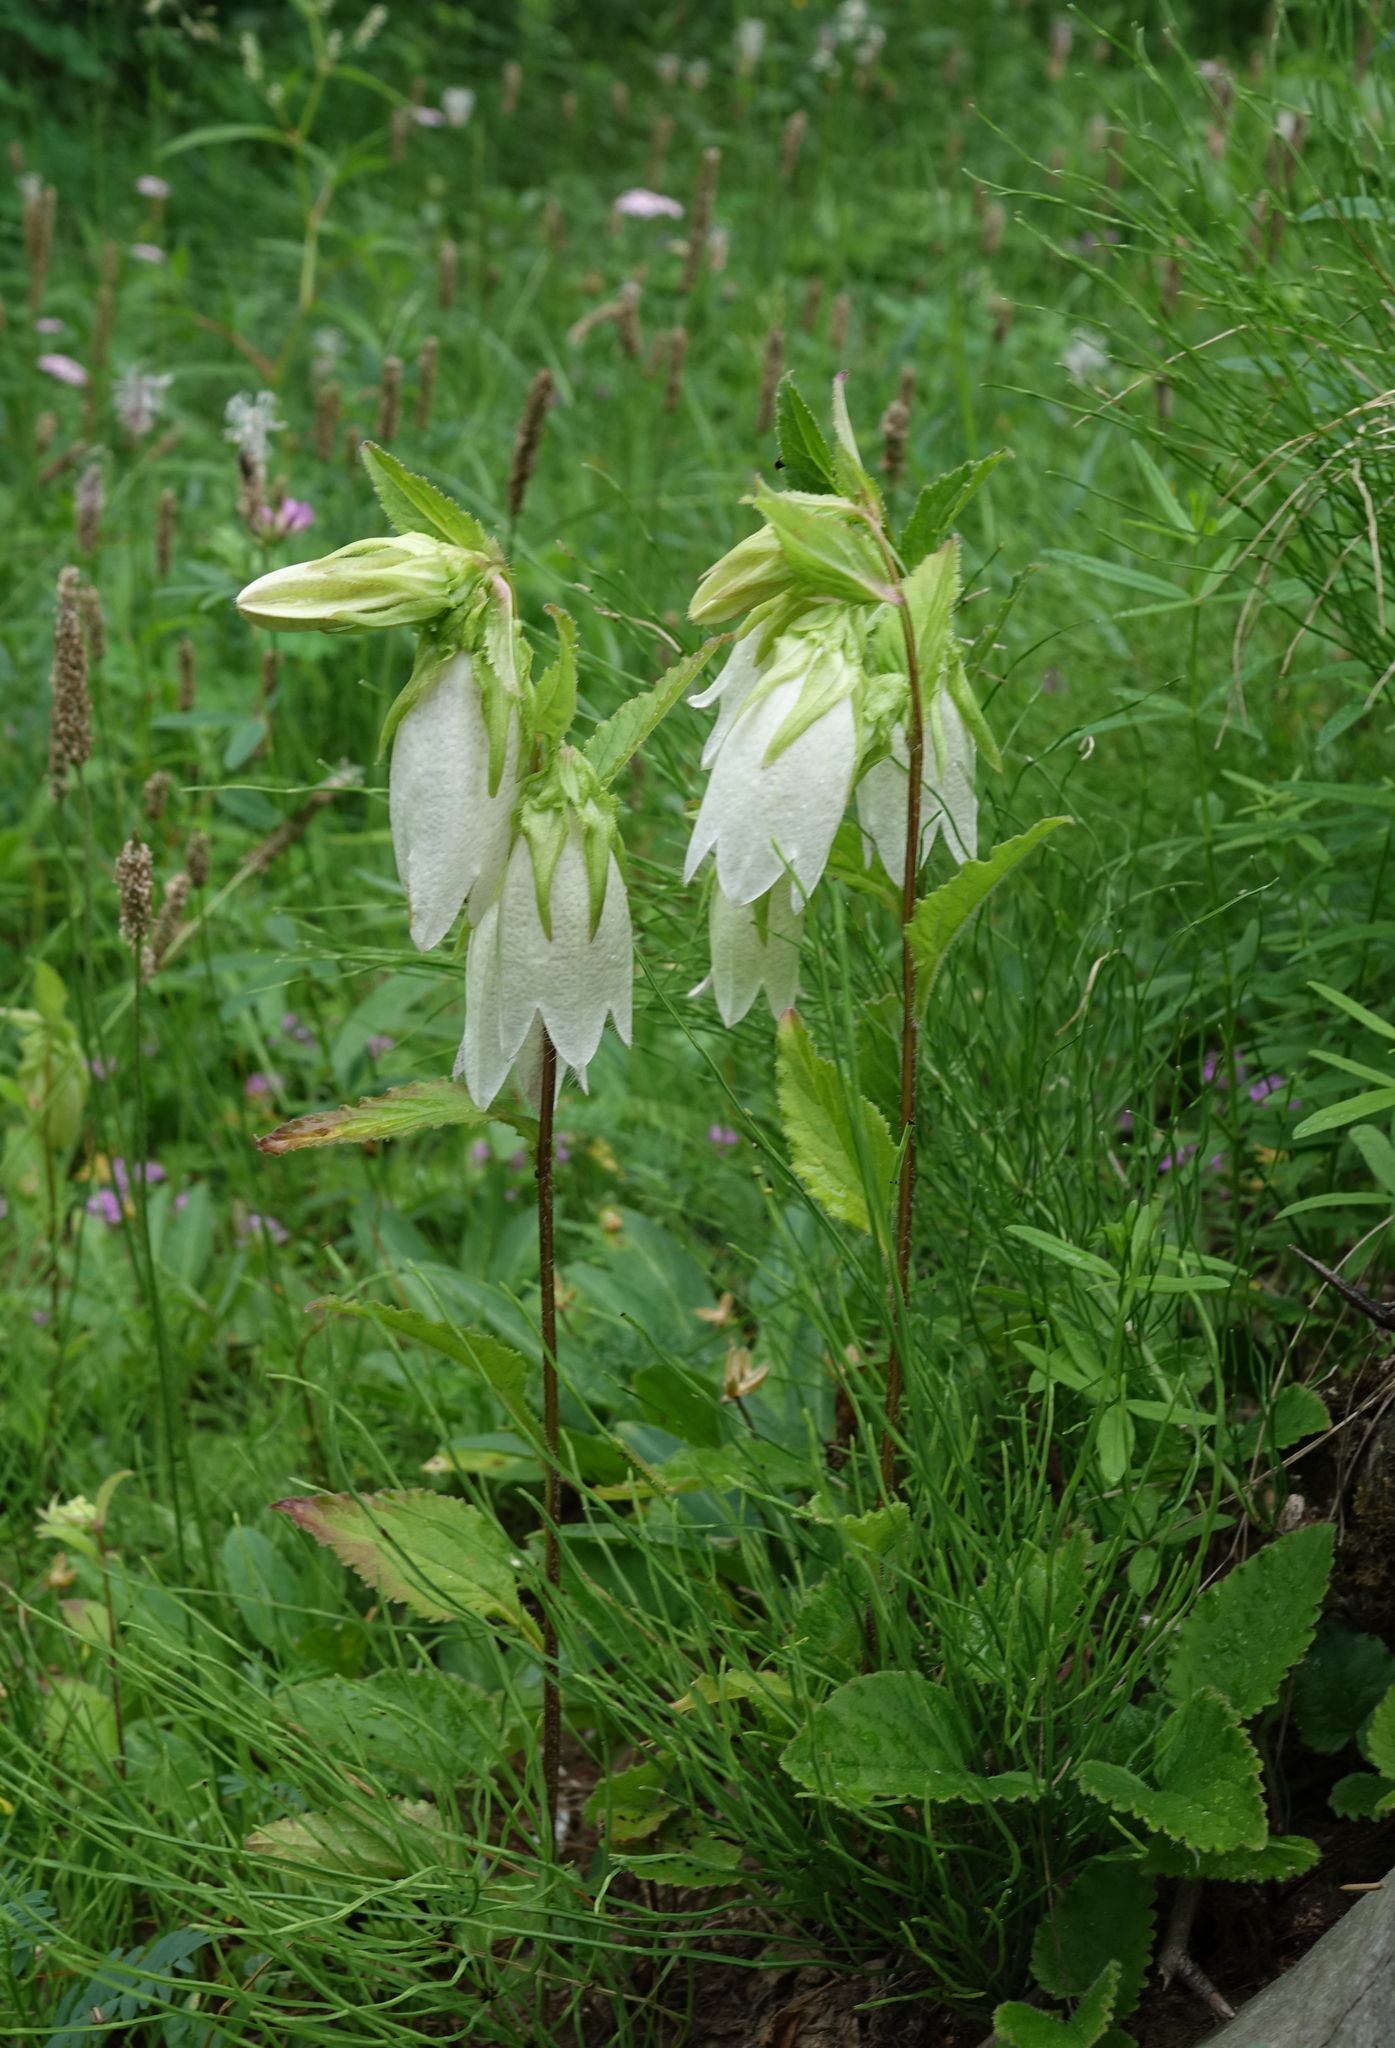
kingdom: Plantae
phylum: Tracheophyta
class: Magnoliopsida
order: Asterales
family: Campanulaceae
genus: Campanula
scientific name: Campanula punctata
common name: Spotted bellflower
